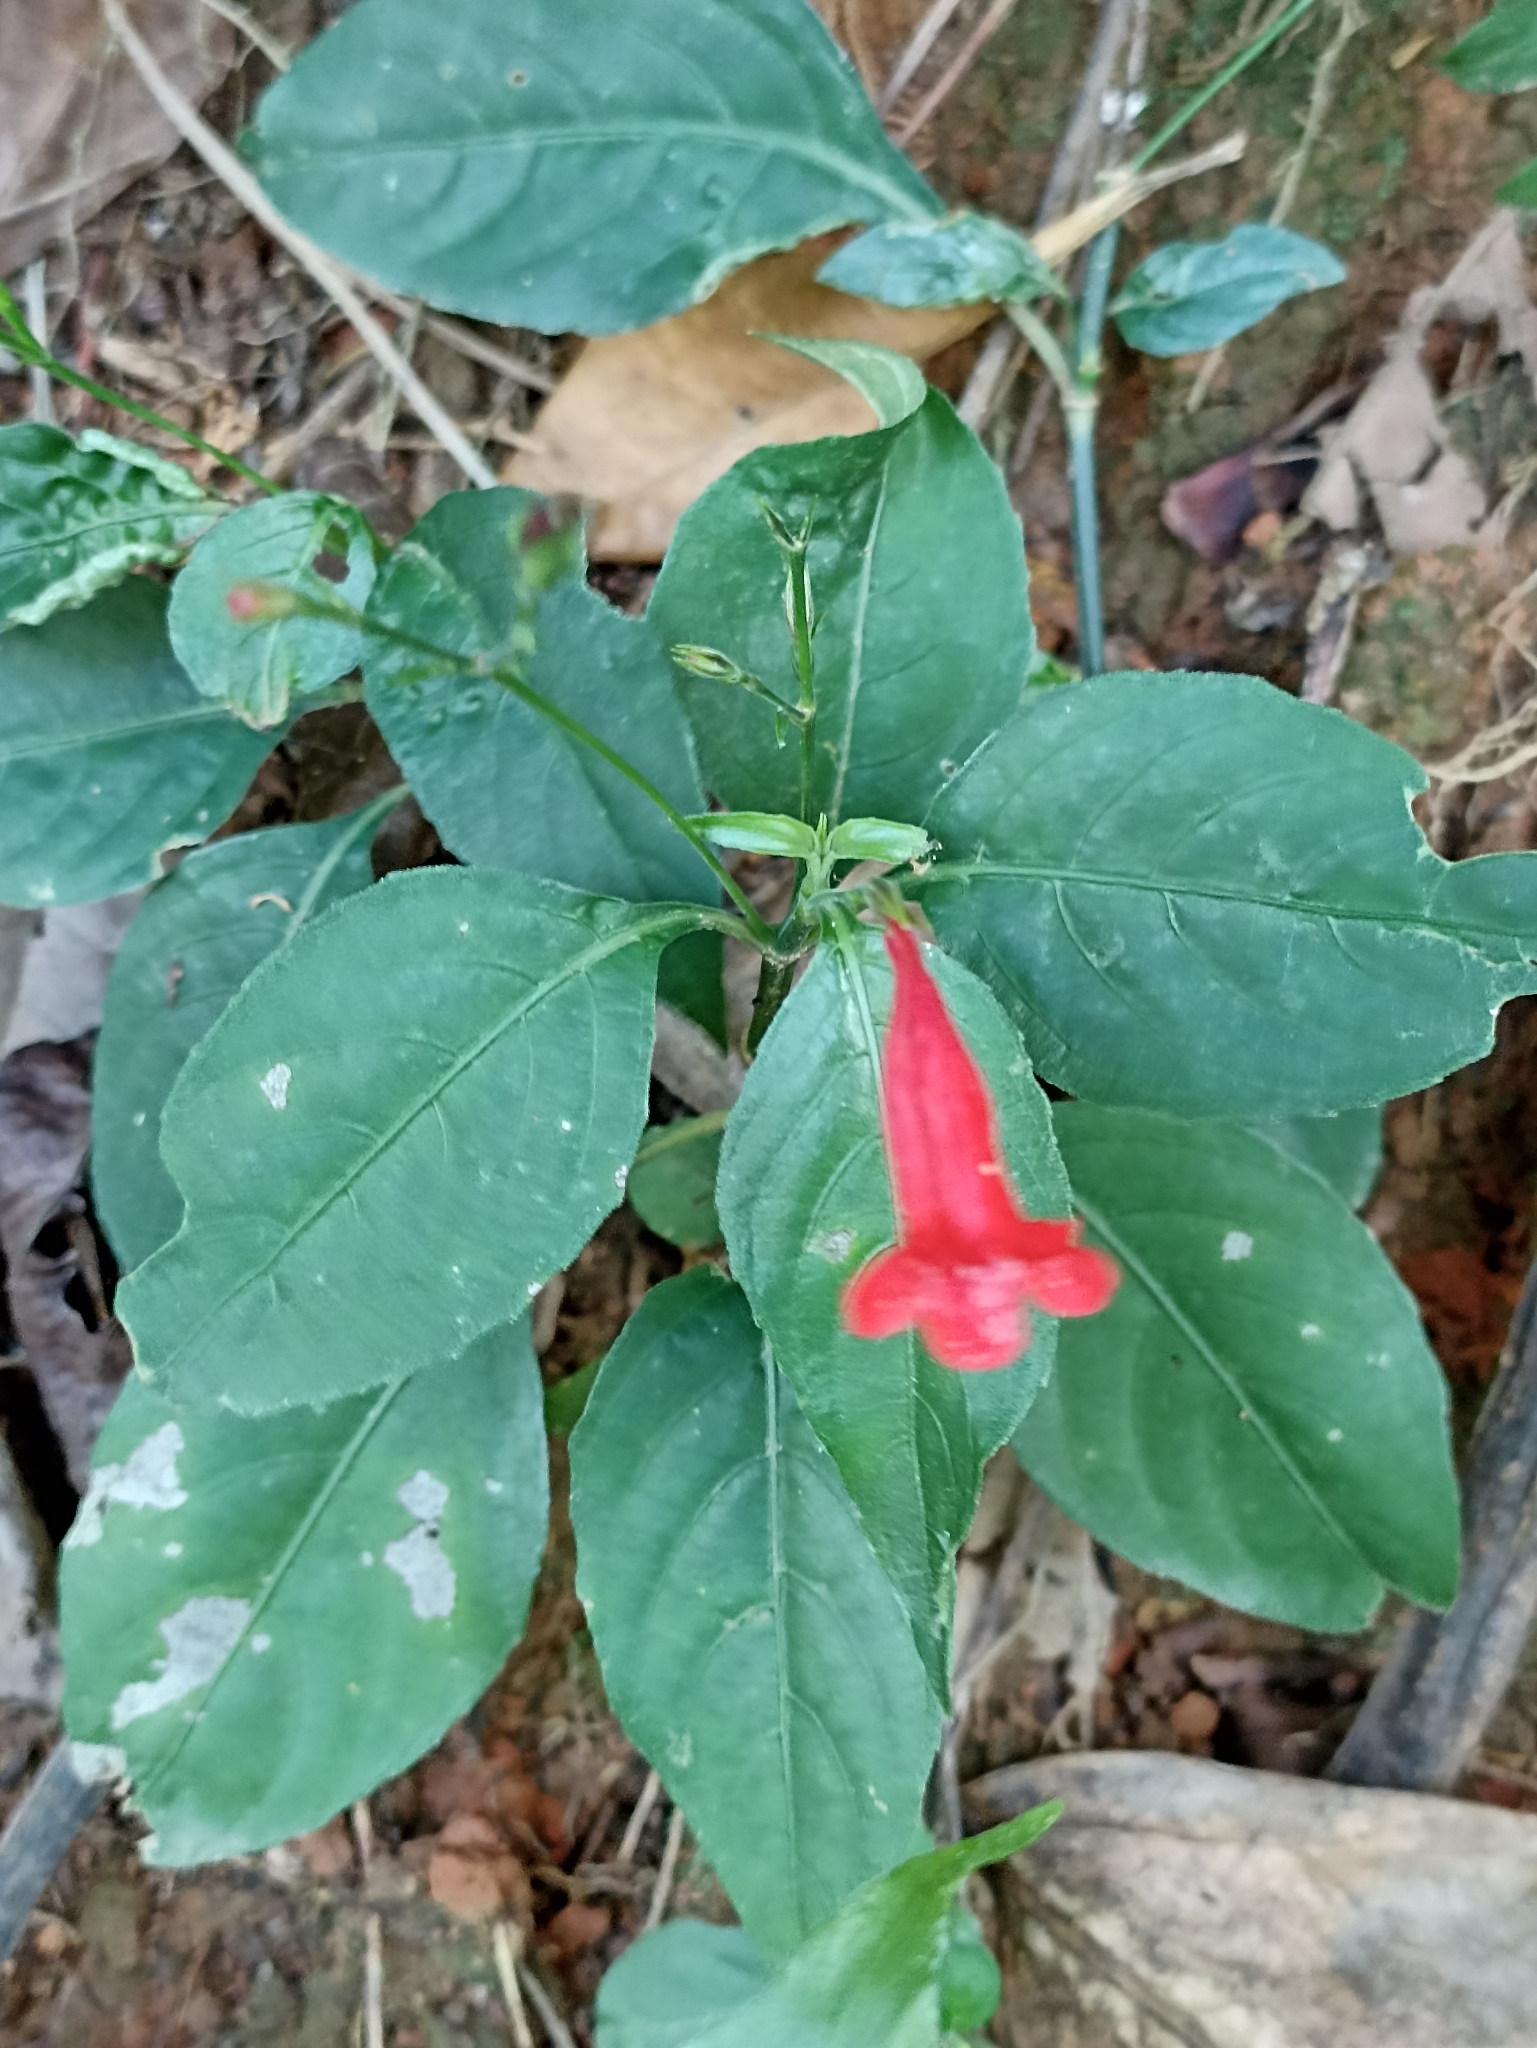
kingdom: Plantae
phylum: Tracheophyta
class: Magnoliopsida
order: Lamiales
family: Acanthaceae
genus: Ruellia
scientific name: Ruellia brevifolia
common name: Tropical wild petunia
